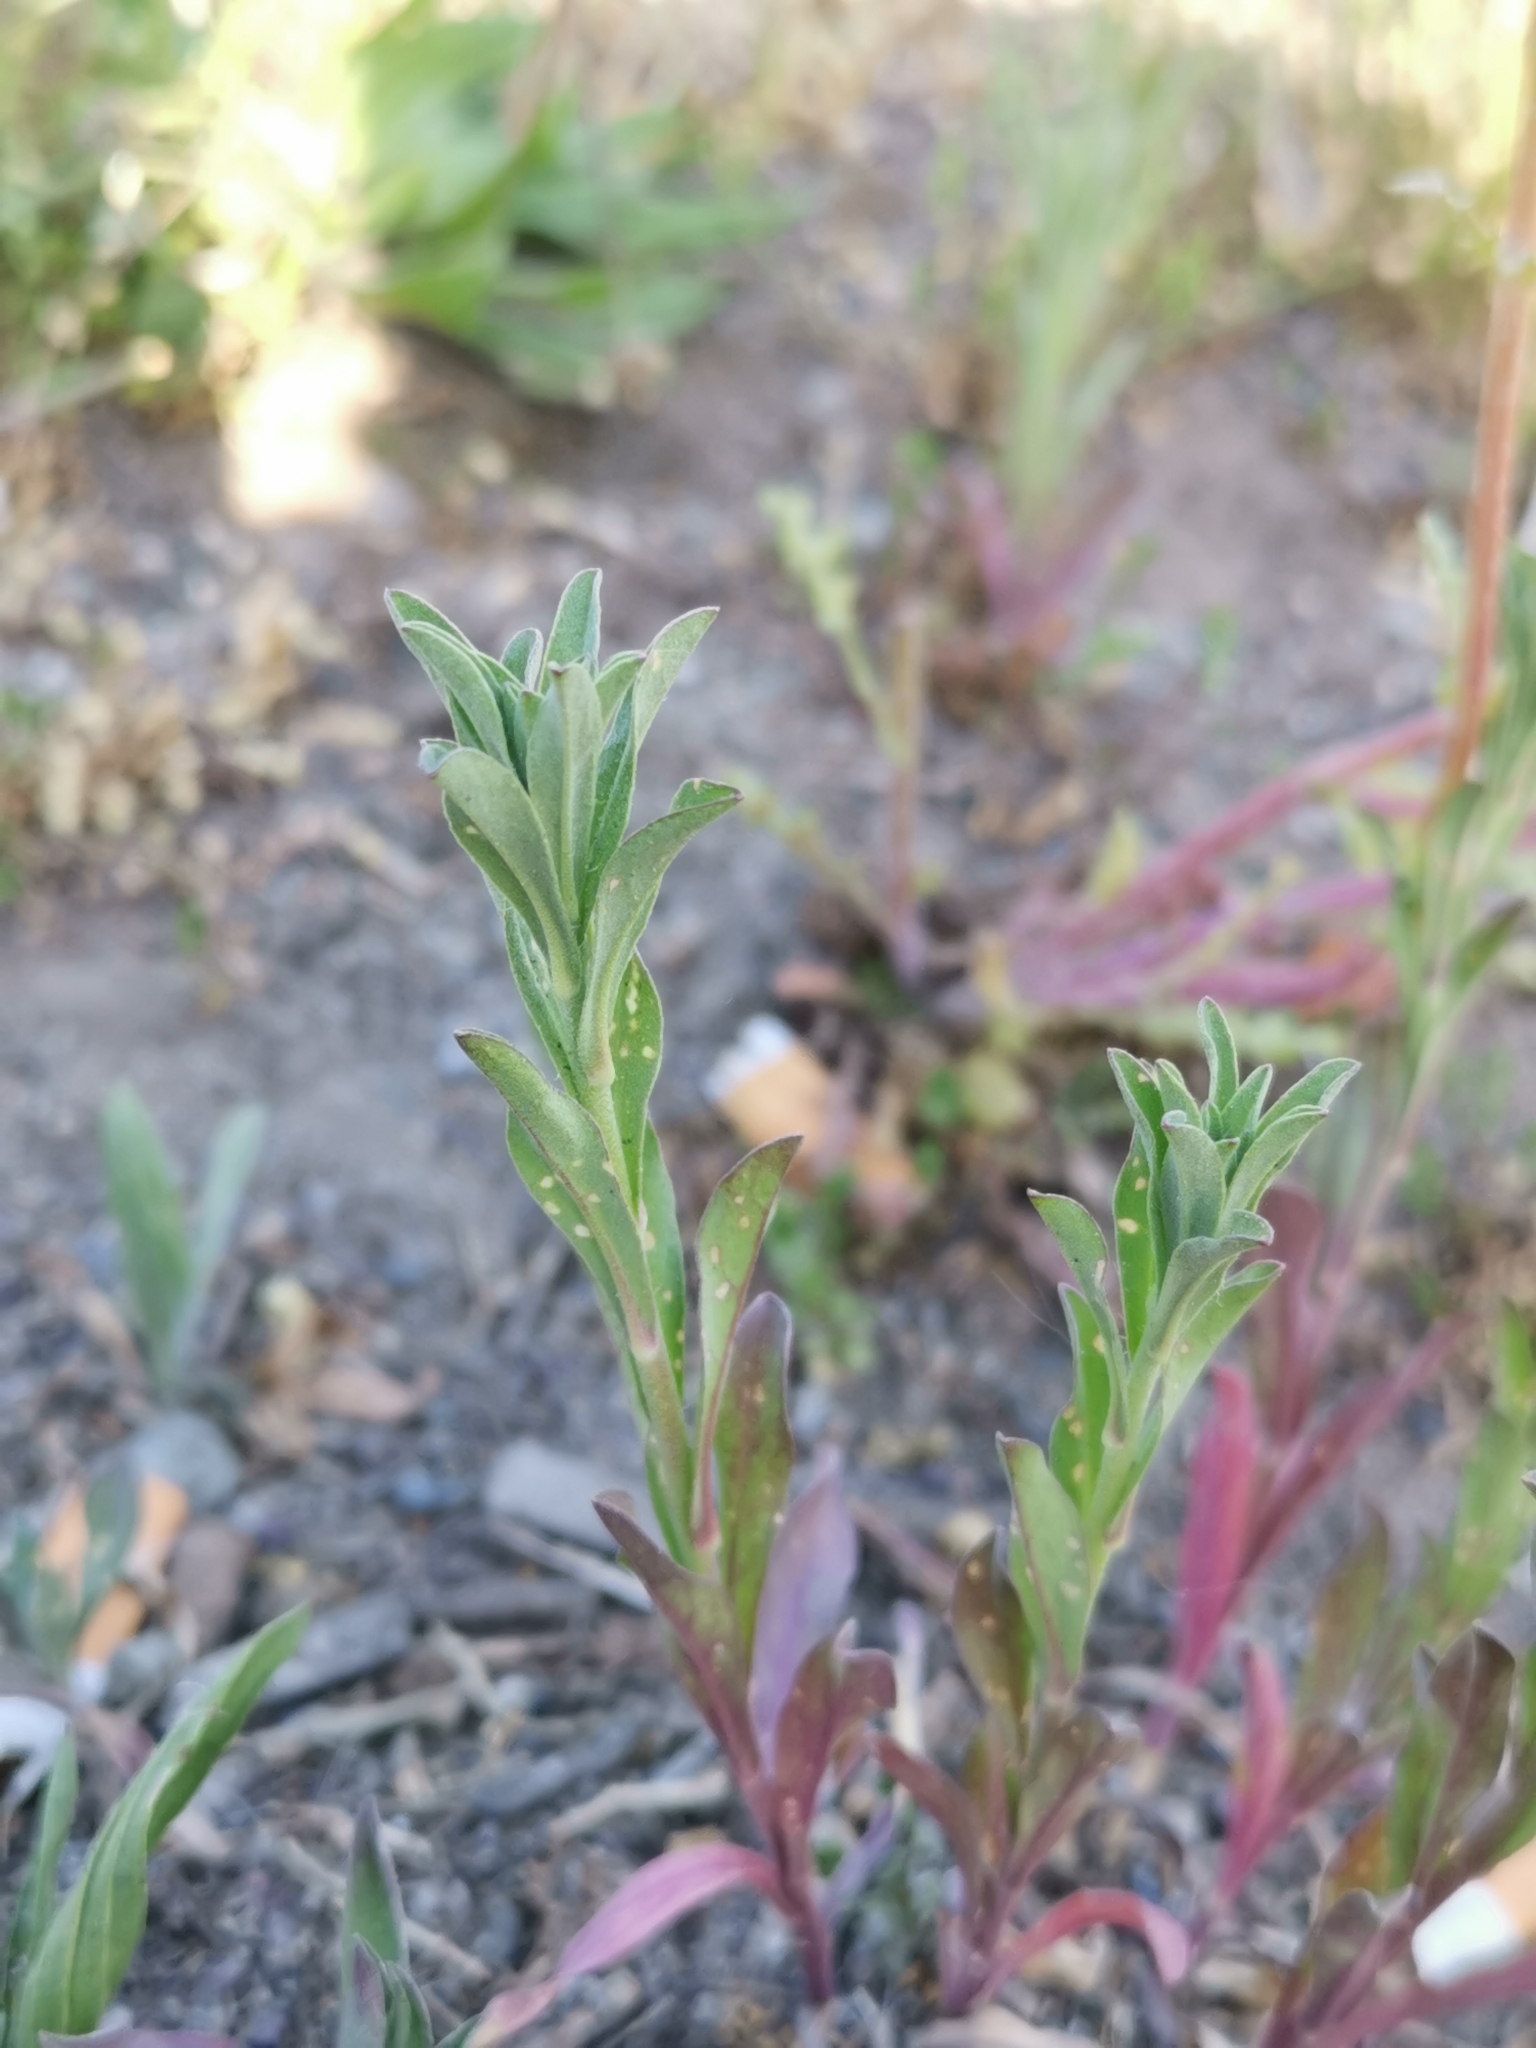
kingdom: Plantae
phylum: Tracheophyta
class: Magnoliopsida
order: Brassicales
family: Brassicaceae
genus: Berteroa
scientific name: Berteroa incana
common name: Hoary alison
